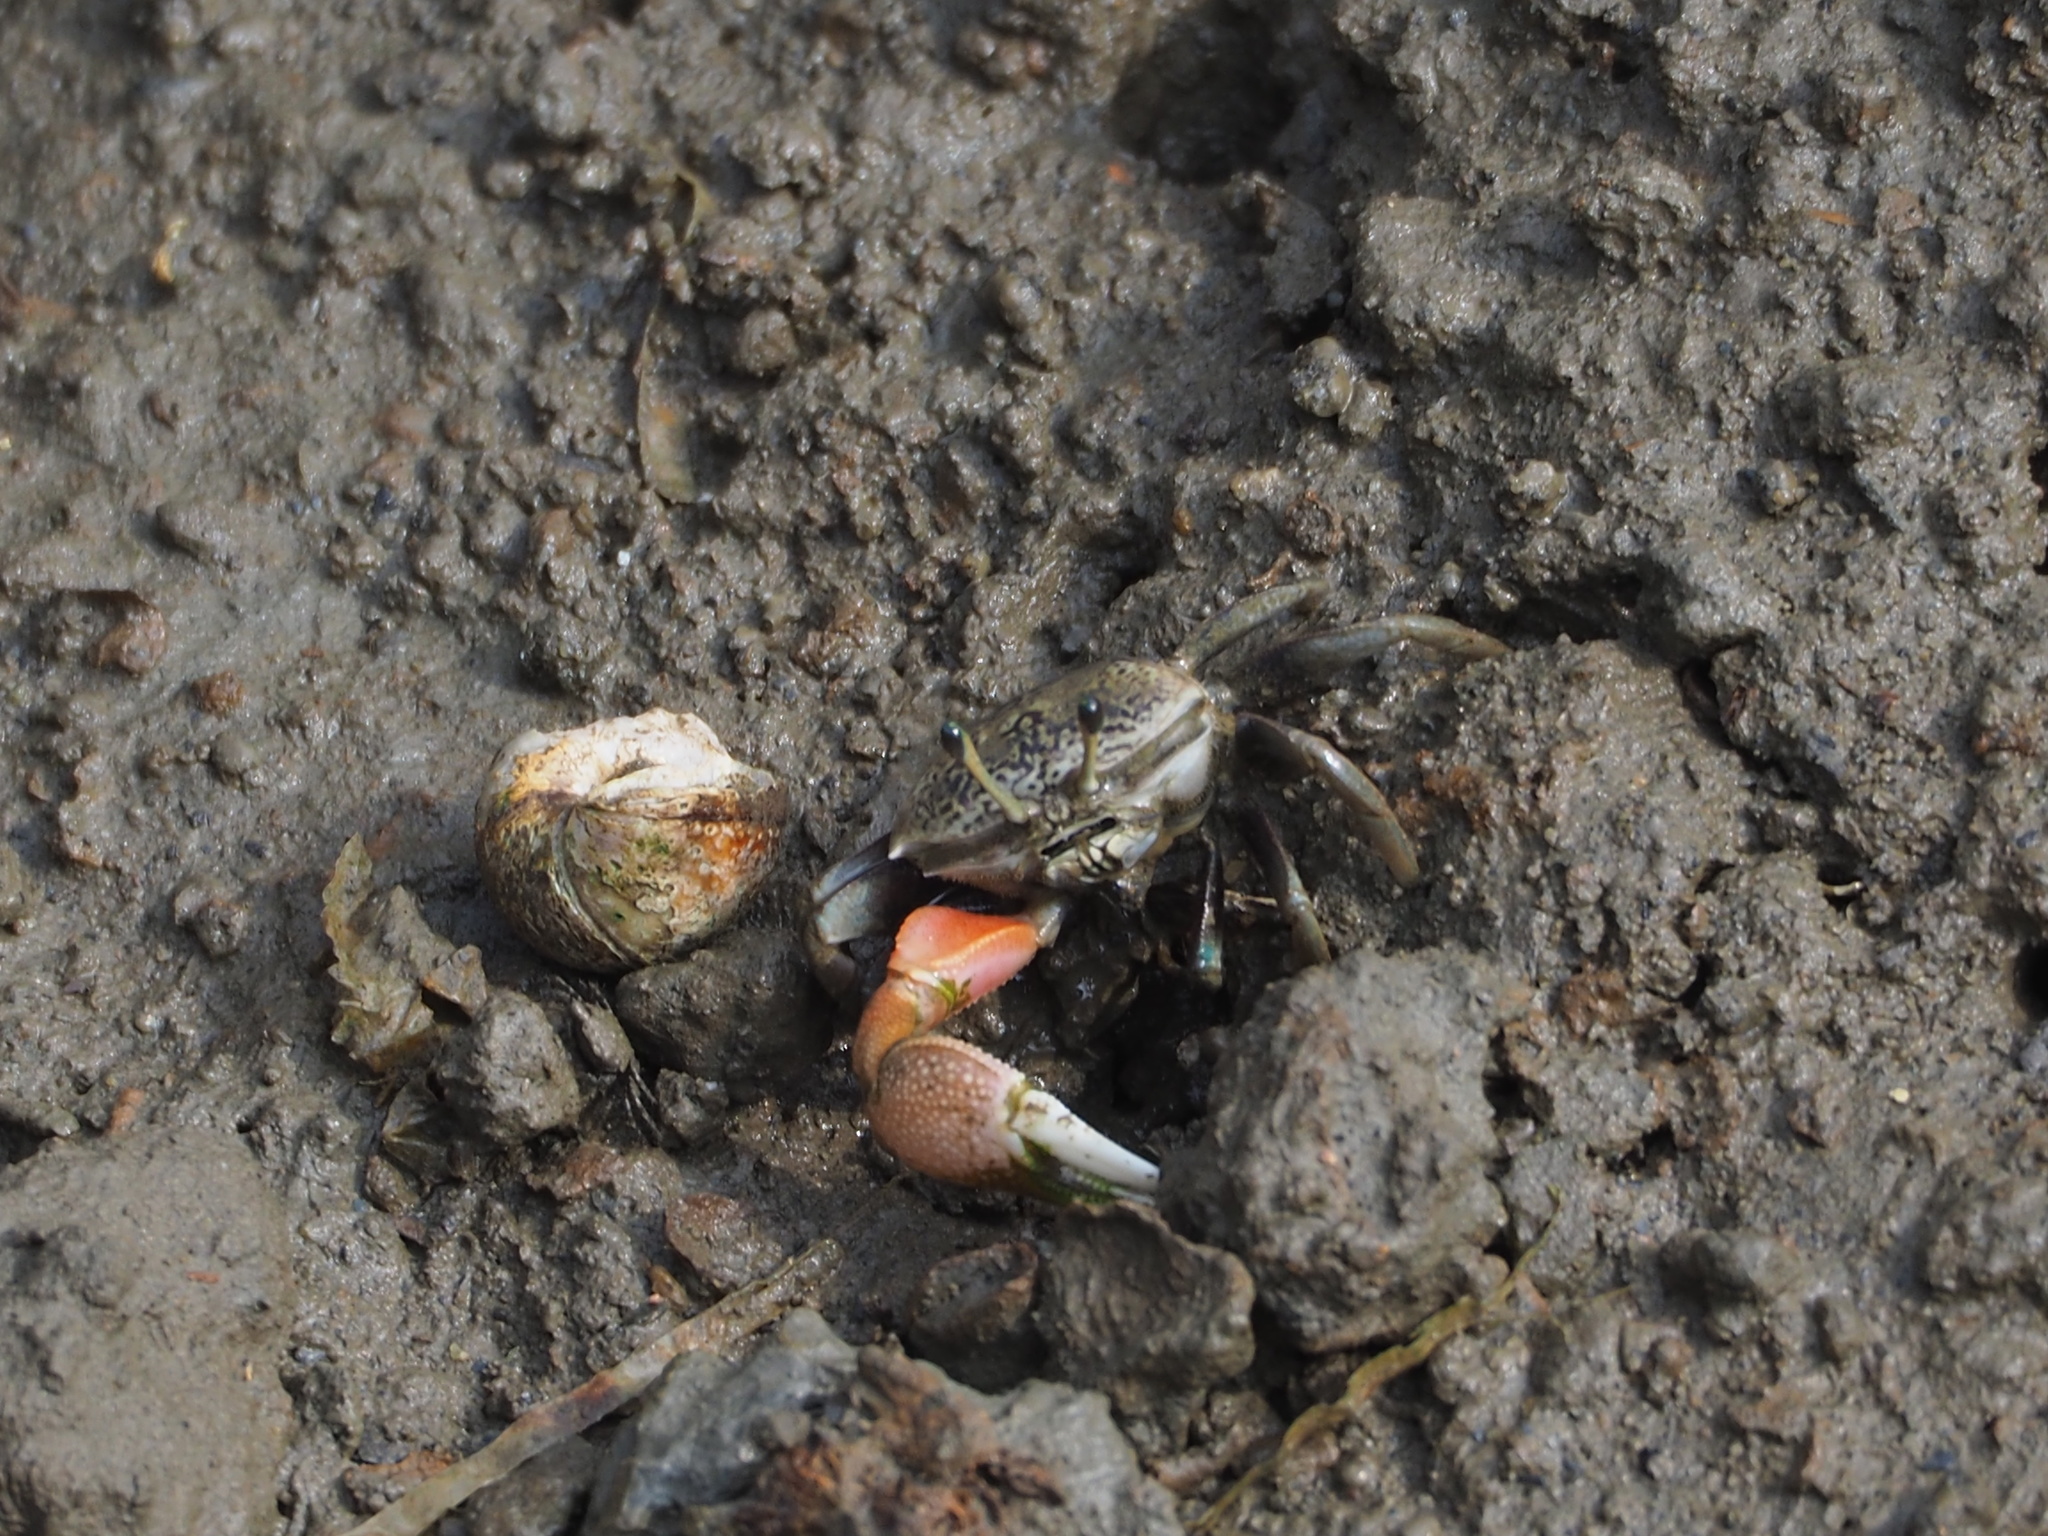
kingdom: Animalia
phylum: Arthropoda
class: Malacostraca
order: Decapoda
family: Ocypodidae
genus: Tubuca
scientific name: Tubuca arcuata
